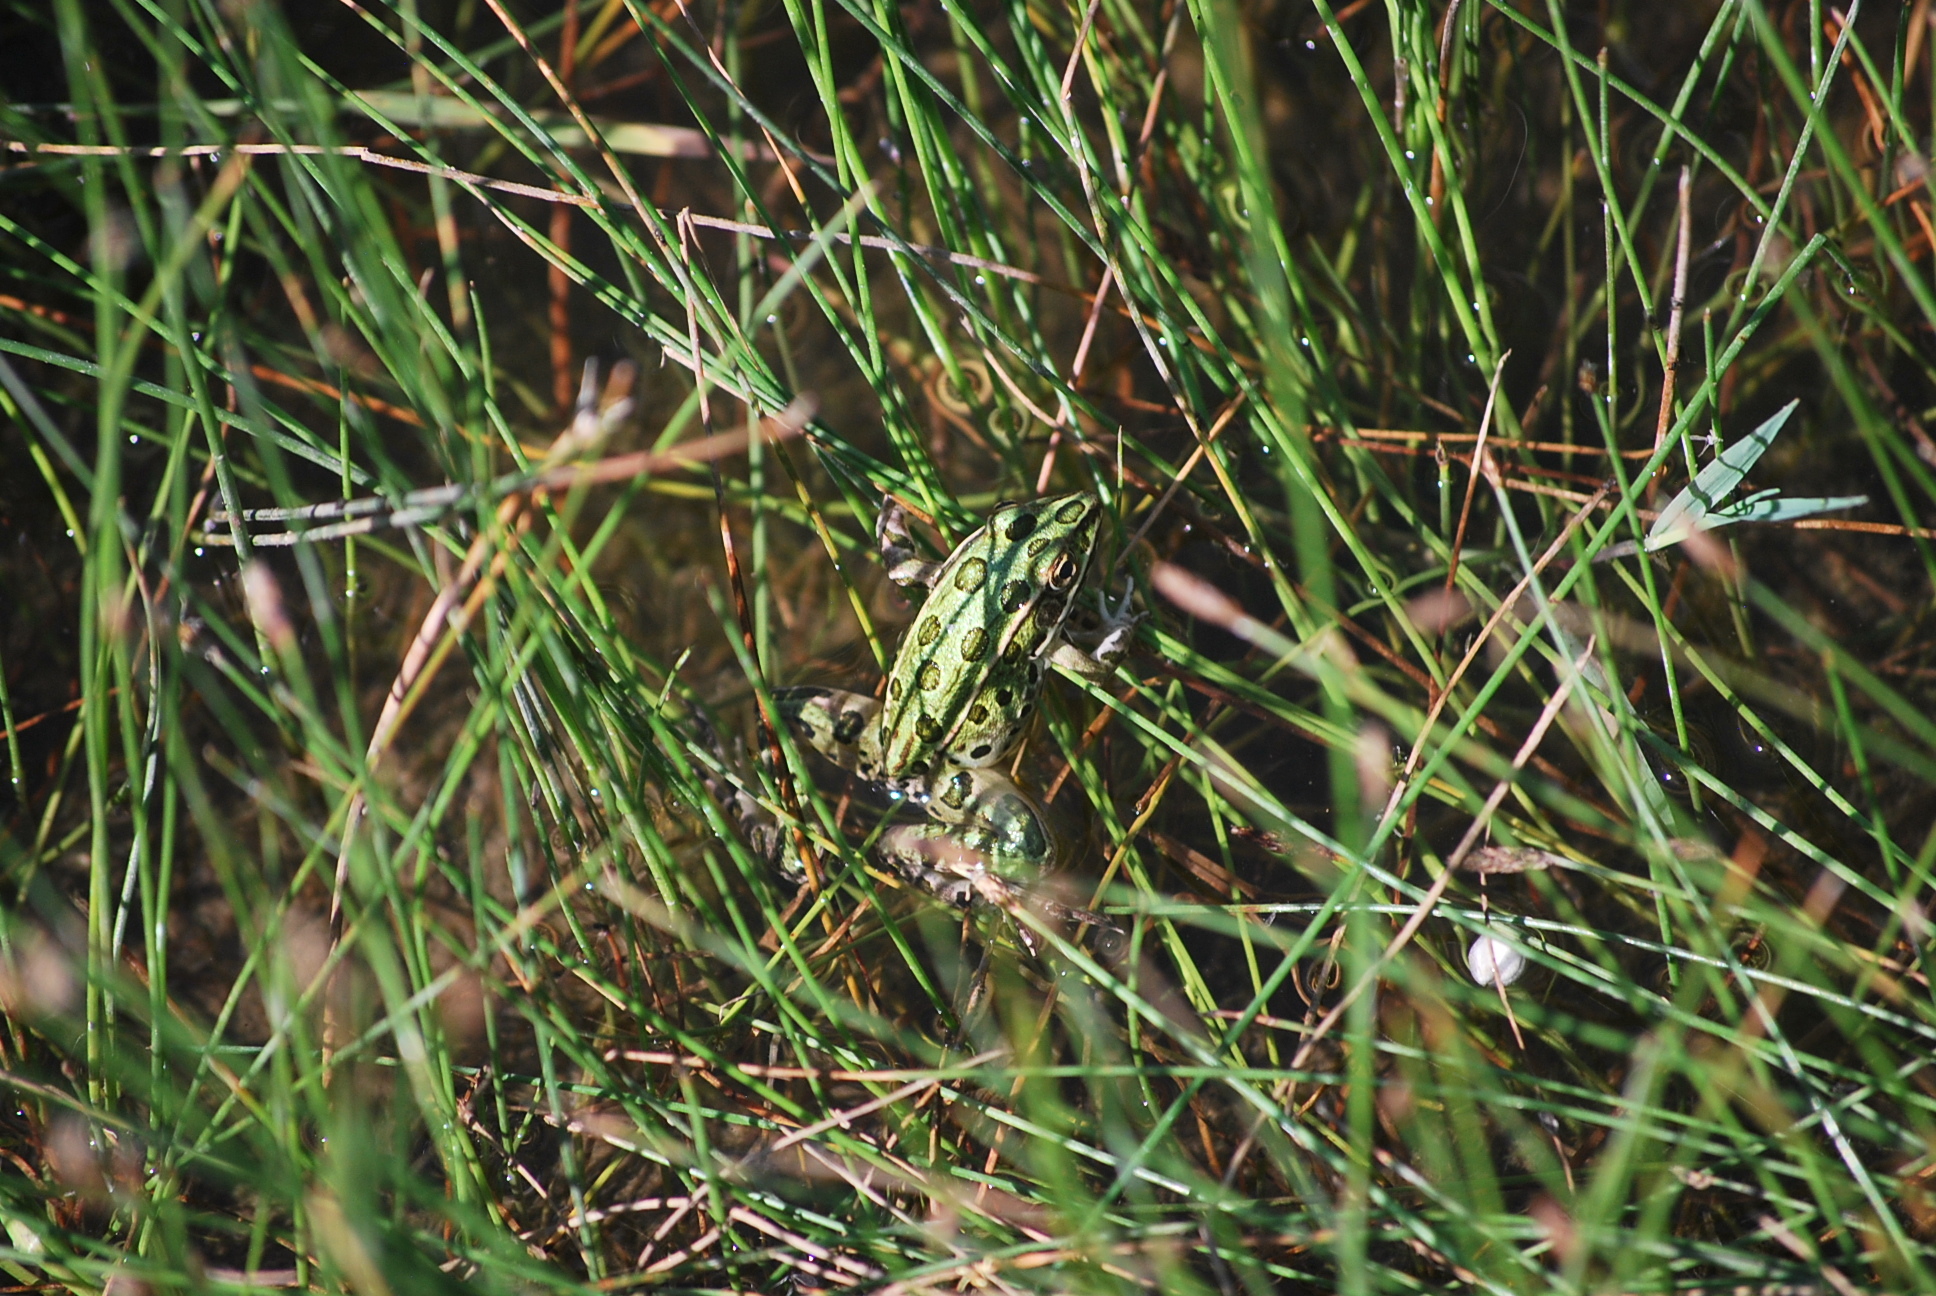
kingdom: Animalia
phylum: Chordata
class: Amphibia
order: Anura
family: Ranidae
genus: Lithobates
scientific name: Lithobates pipiens
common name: Northern leopard frog
